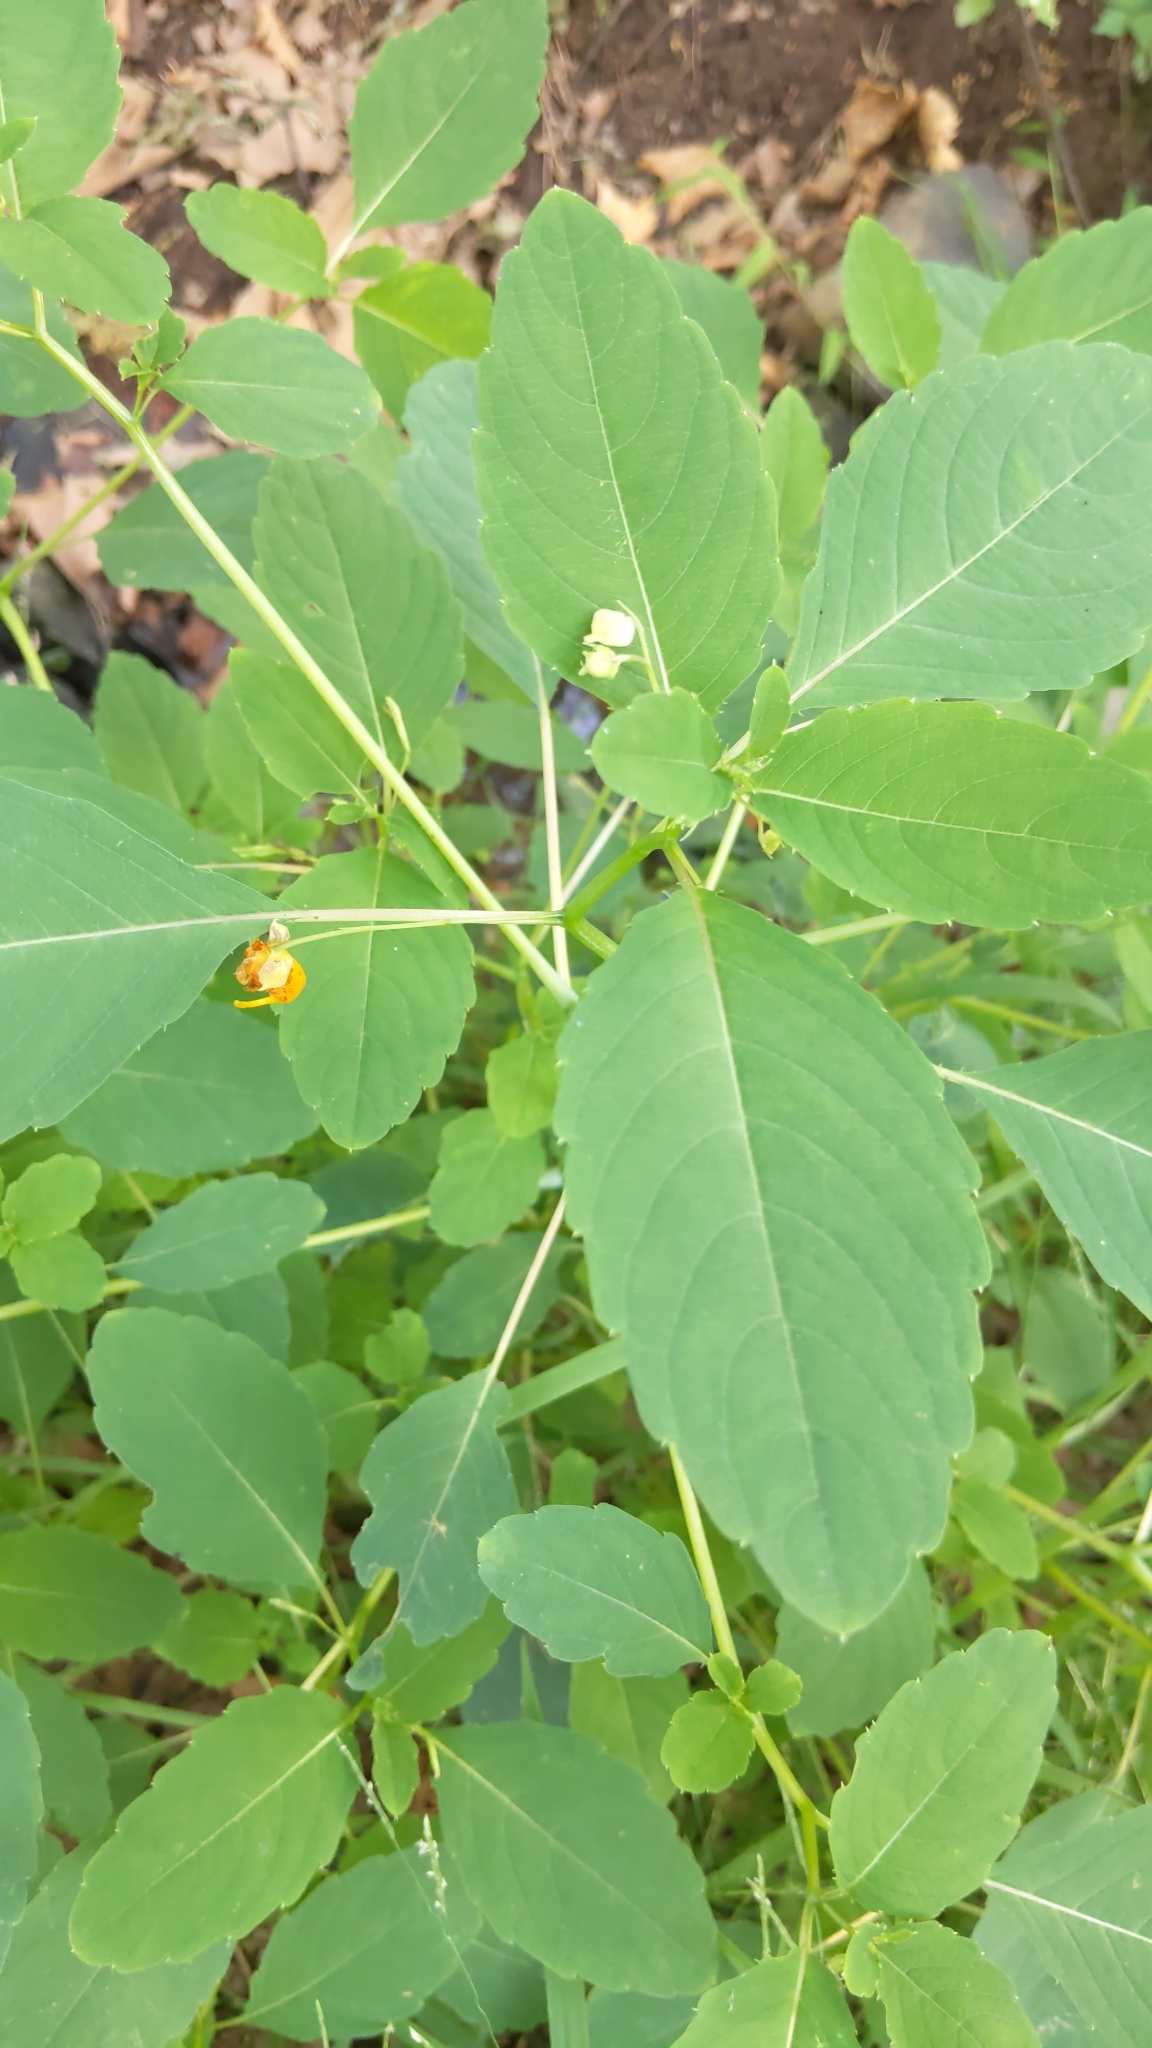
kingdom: Plantae
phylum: Tracheophyta
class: Magnoliopsida
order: Ericales
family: Balsaminaceae
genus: Impatiens
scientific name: Impatiens capensis
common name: Orange balsam
